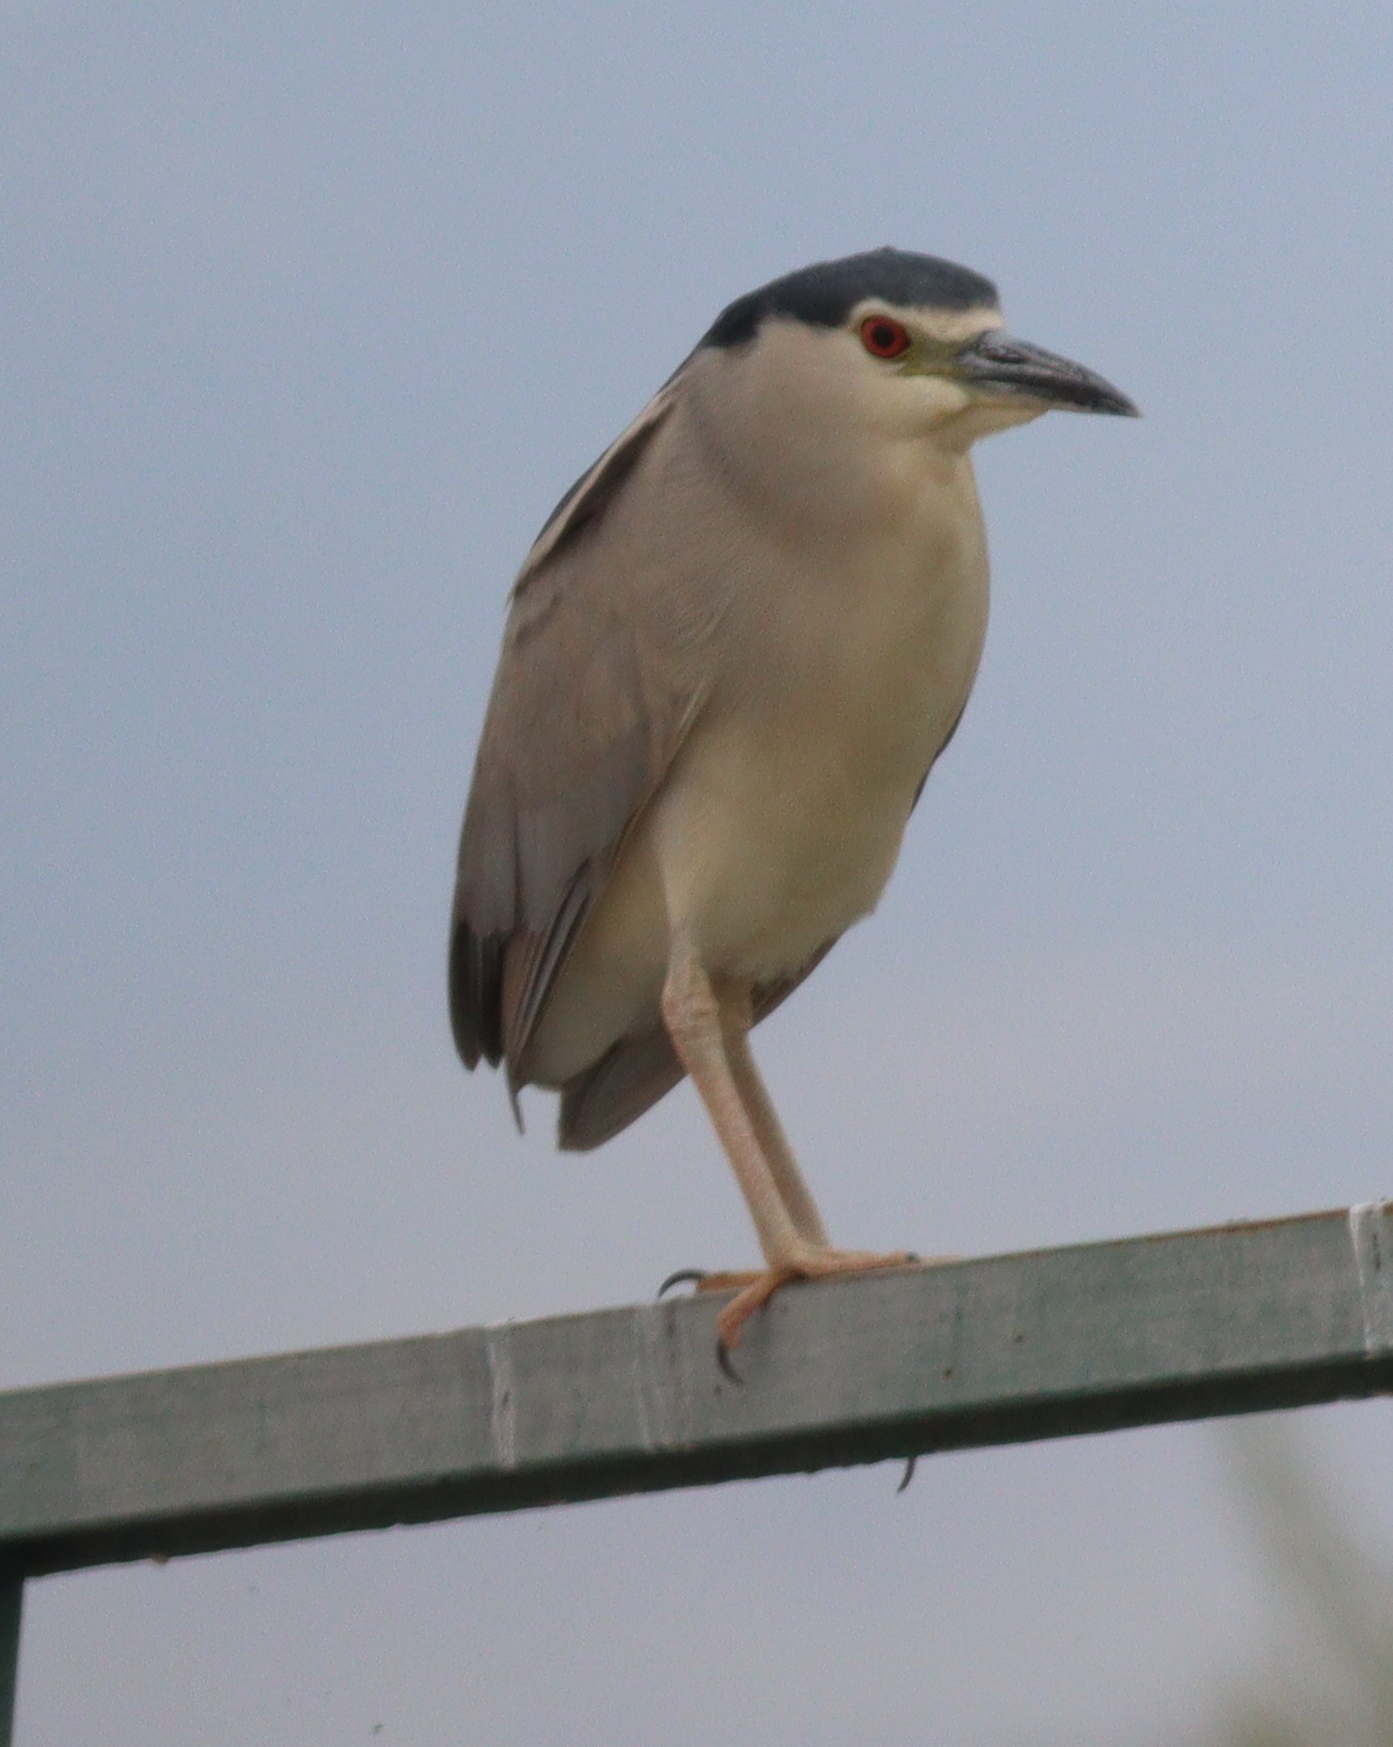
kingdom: Animalia
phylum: Chordata
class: Aves
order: Pelecaniformes
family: Ardeidae
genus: Nycticorax
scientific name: Nycticorax nycticorax
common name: Black-crowned night heron
